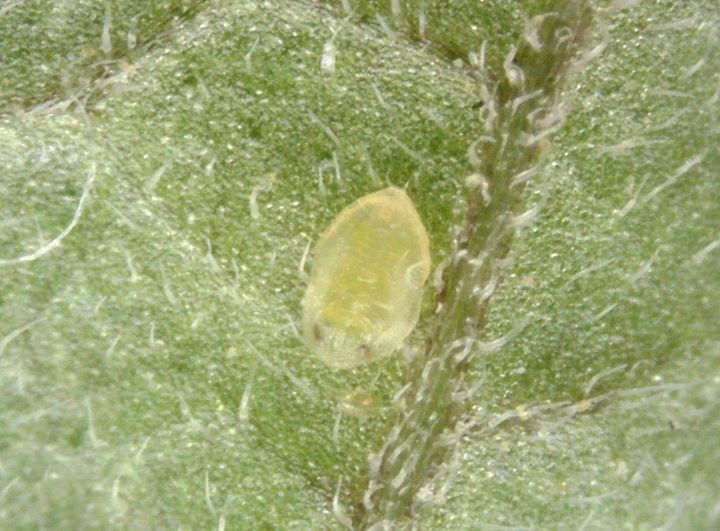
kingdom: Animalia
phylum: Arthropoda
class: Insecta
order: Hemiptera
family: Aleyrodidae
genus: Bemisia
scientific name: Bemisia tabaci
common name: Sweetpotato whitefly
